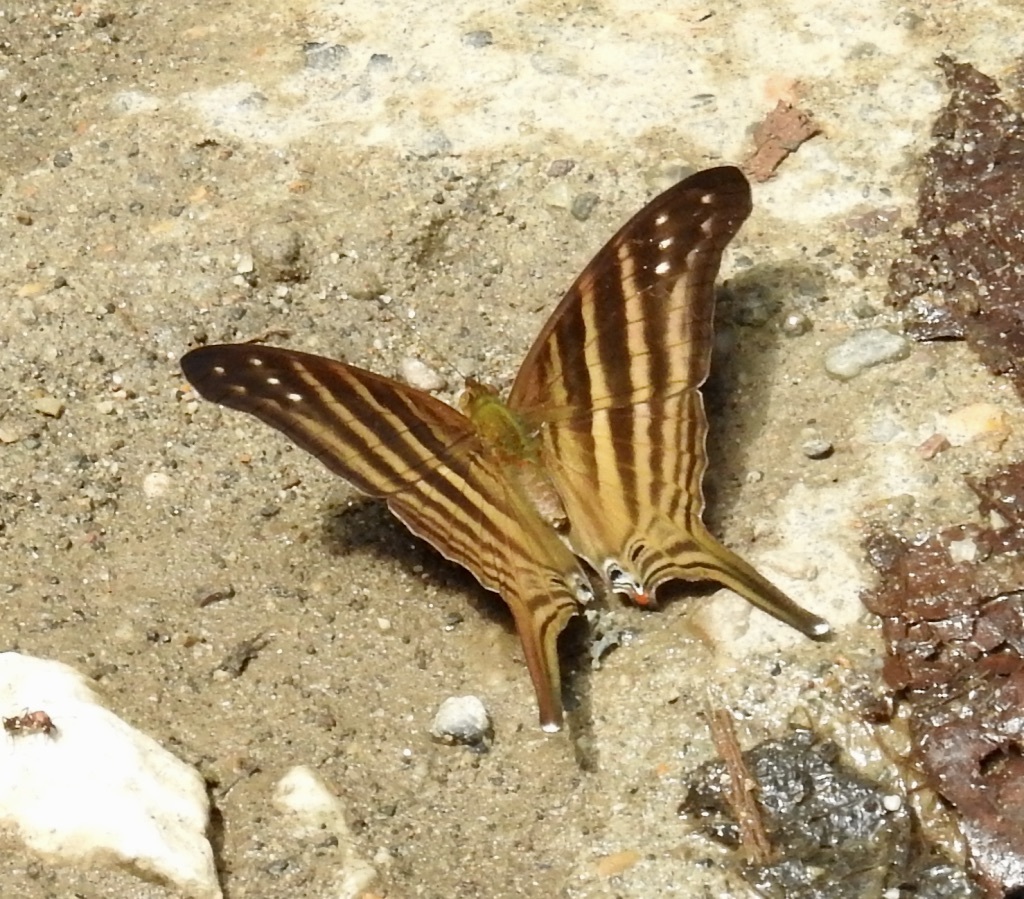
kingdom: Animalia
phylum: Arthropoda
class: Insecta
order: Lepidoptera
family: Nymphalidae
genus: Marpesia
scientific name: Marpesia chiron
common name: Many-banded daggerwing
